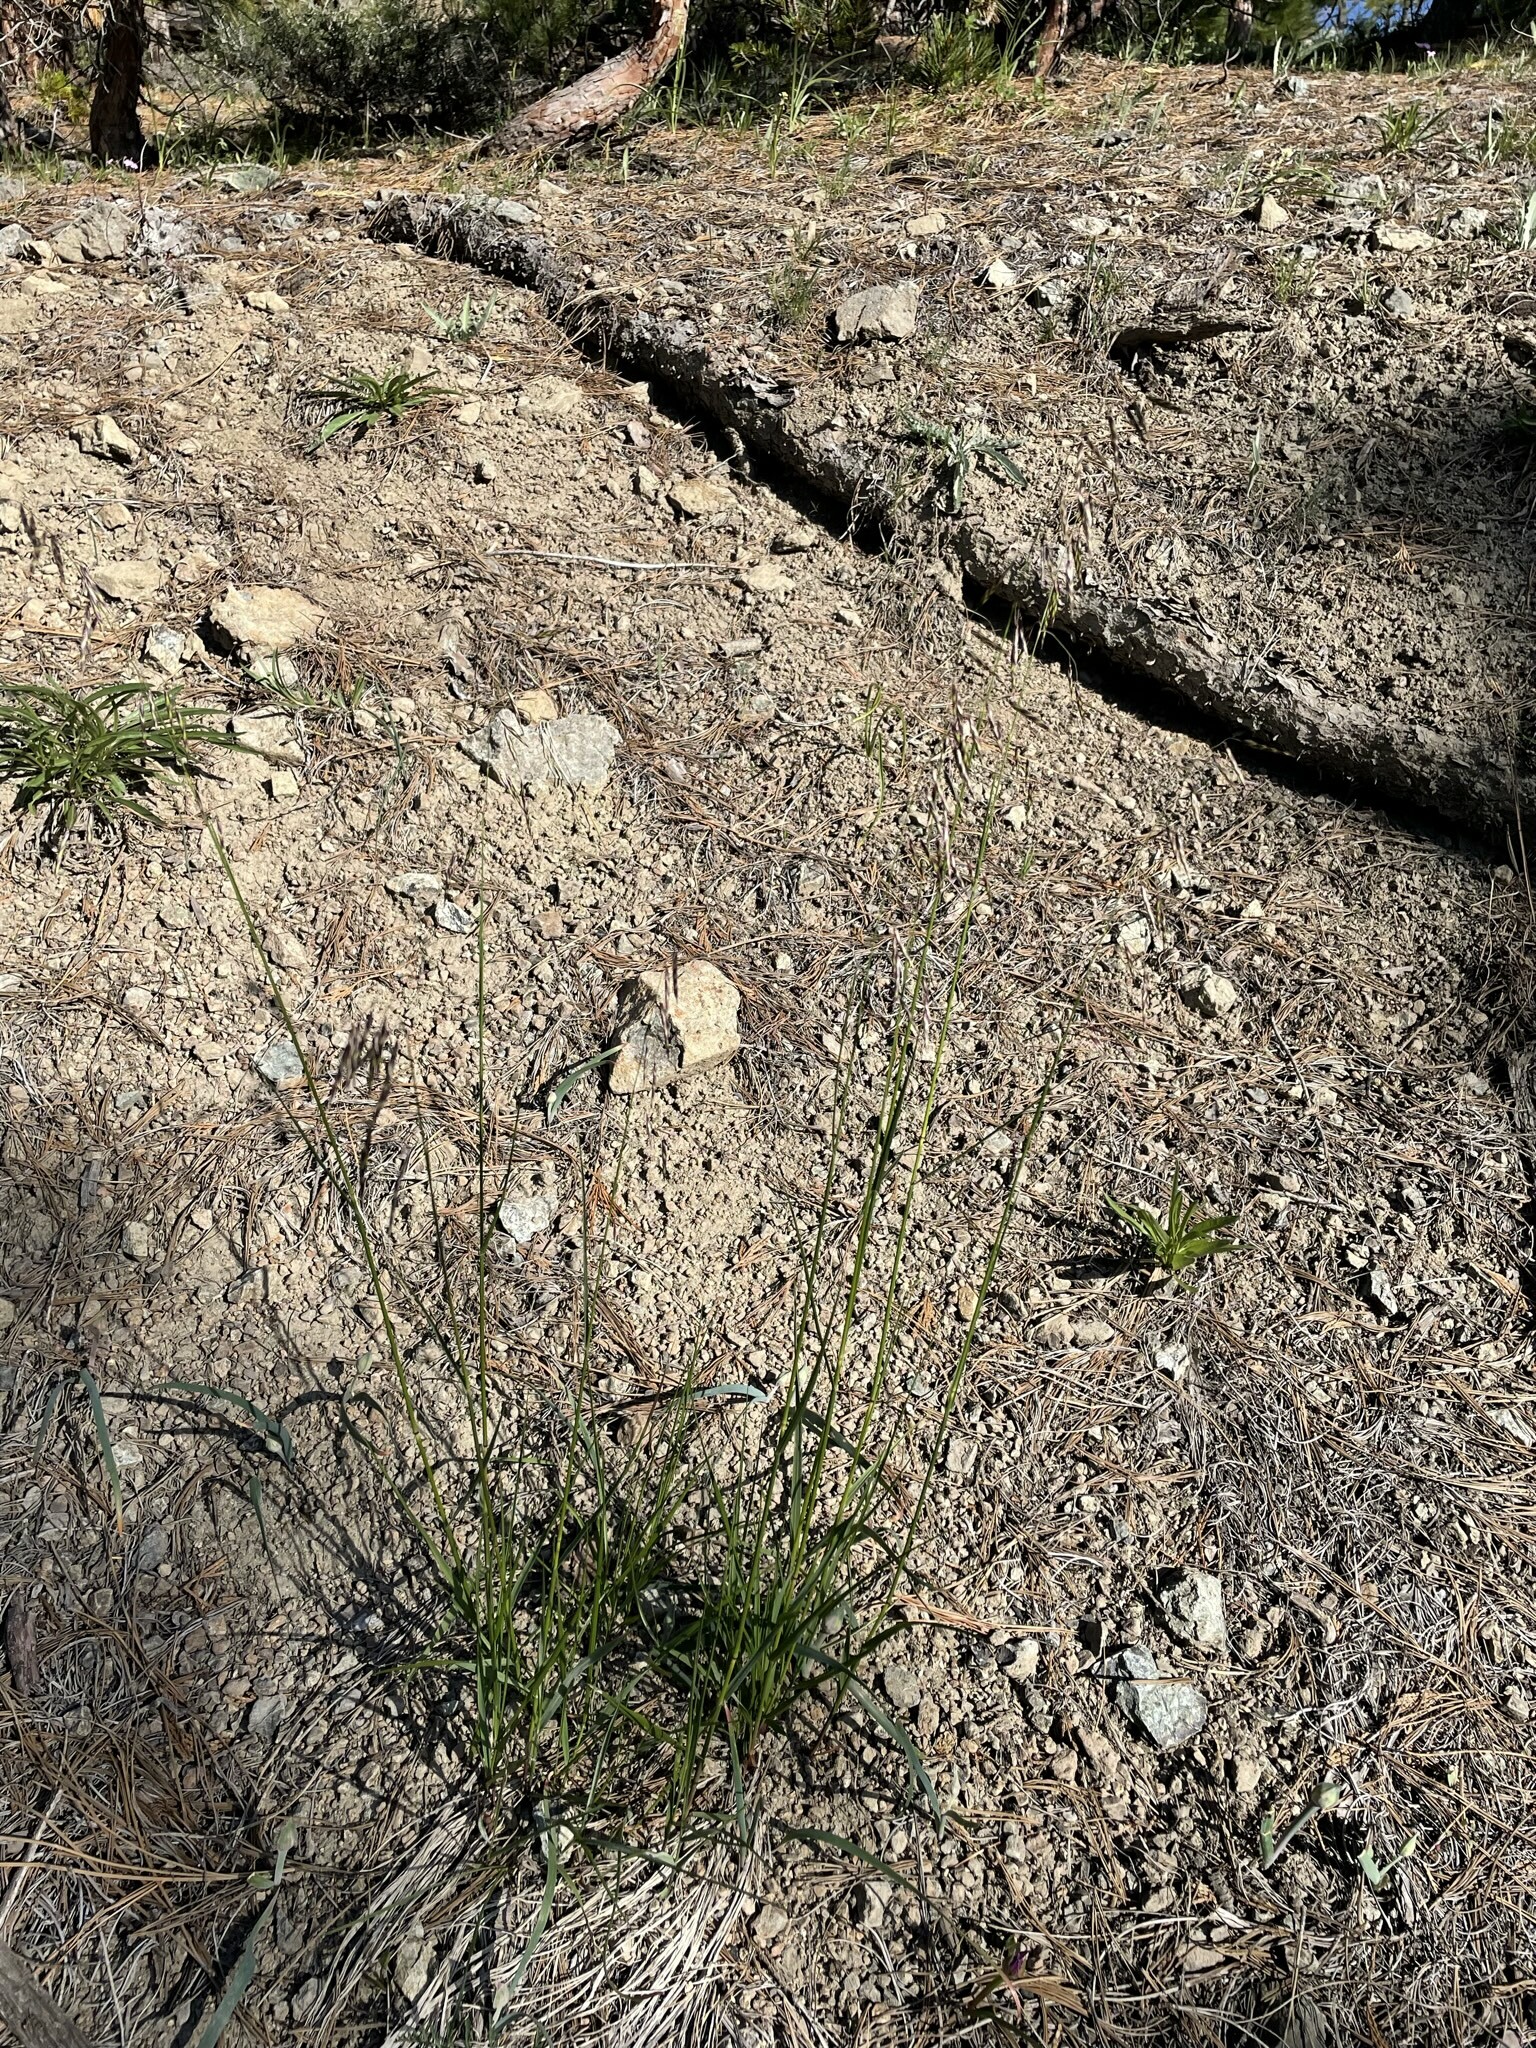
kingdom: Plantae
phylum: Tracheophyta
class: Liliopsida
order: Poales
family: Poaceae
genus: Melica
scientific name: Melica geyeri
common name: Geyer's oniongrass
